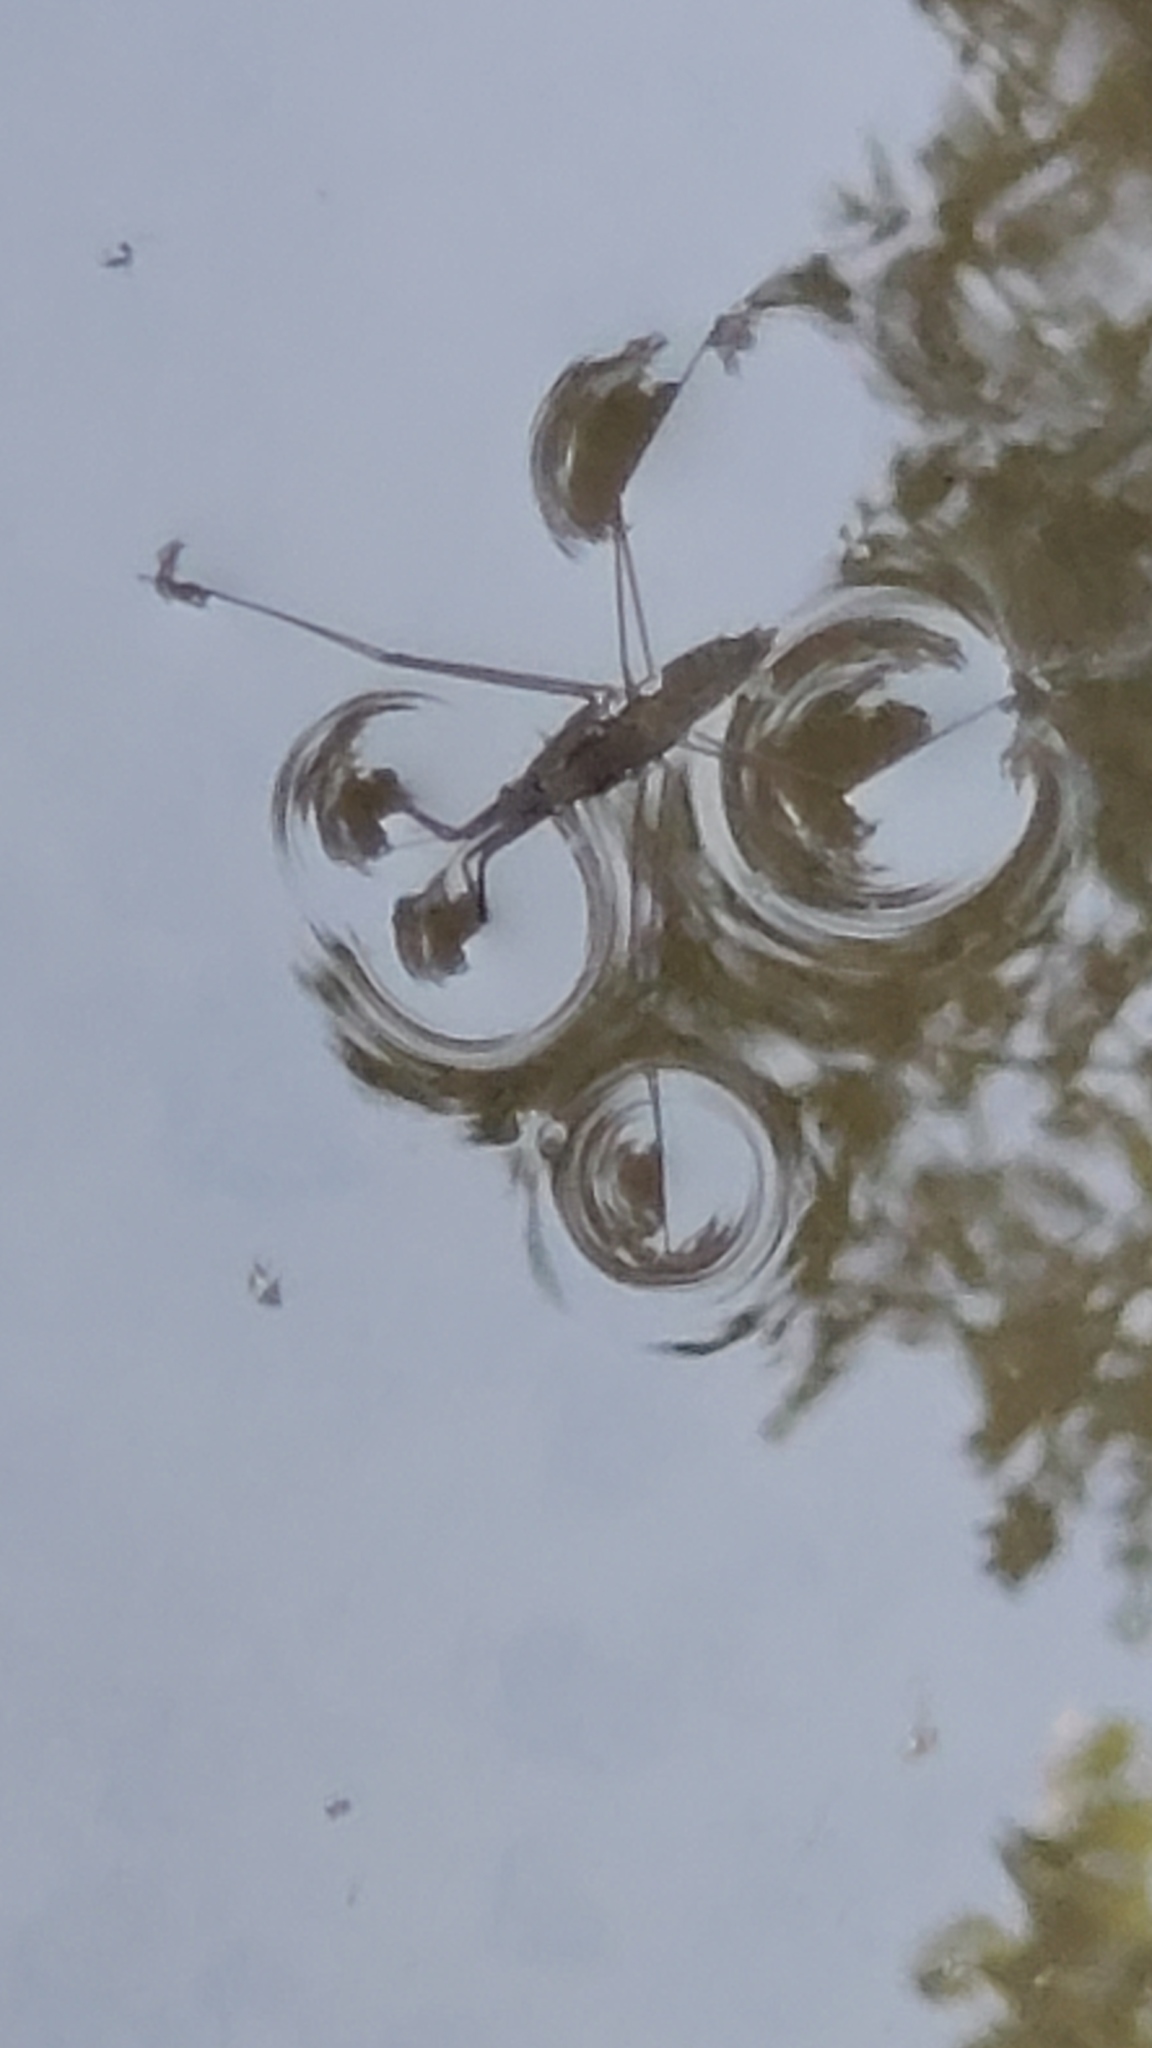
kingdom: Animalia
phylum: Arthropoda
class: Insecta
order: Hemiptera
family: Gerridae
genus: Aquarius
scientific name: Aquarius remigis
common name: Common water strider
